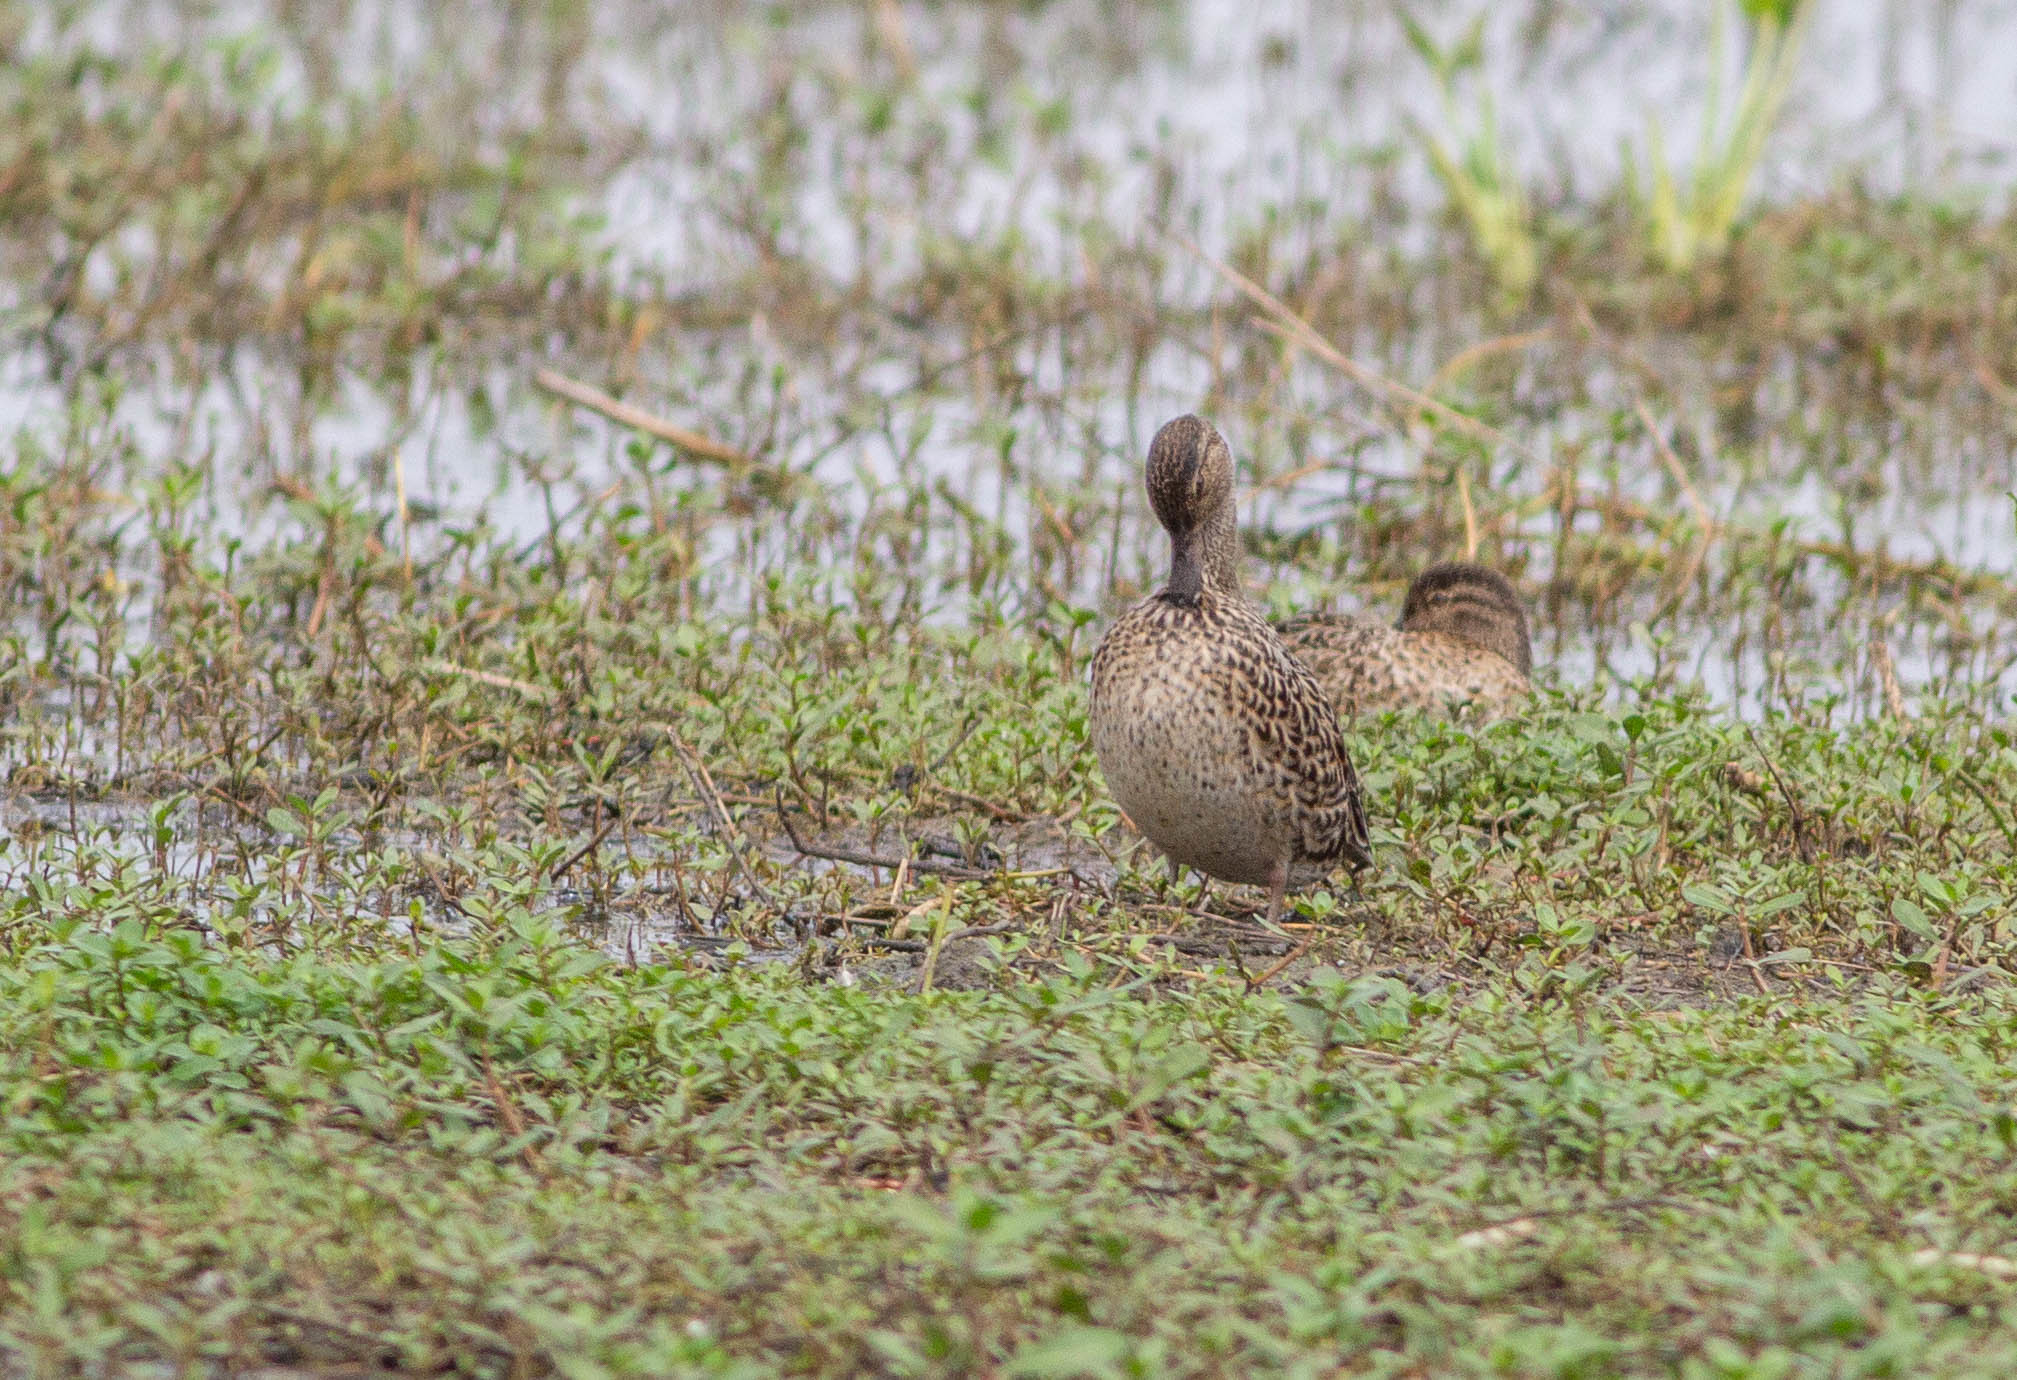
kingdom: Animalia
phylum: Chordata
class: Aves
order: Anseriformes
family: Anatidae
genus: Spatula
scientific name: Spatula discors
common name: Blue-winged teal
